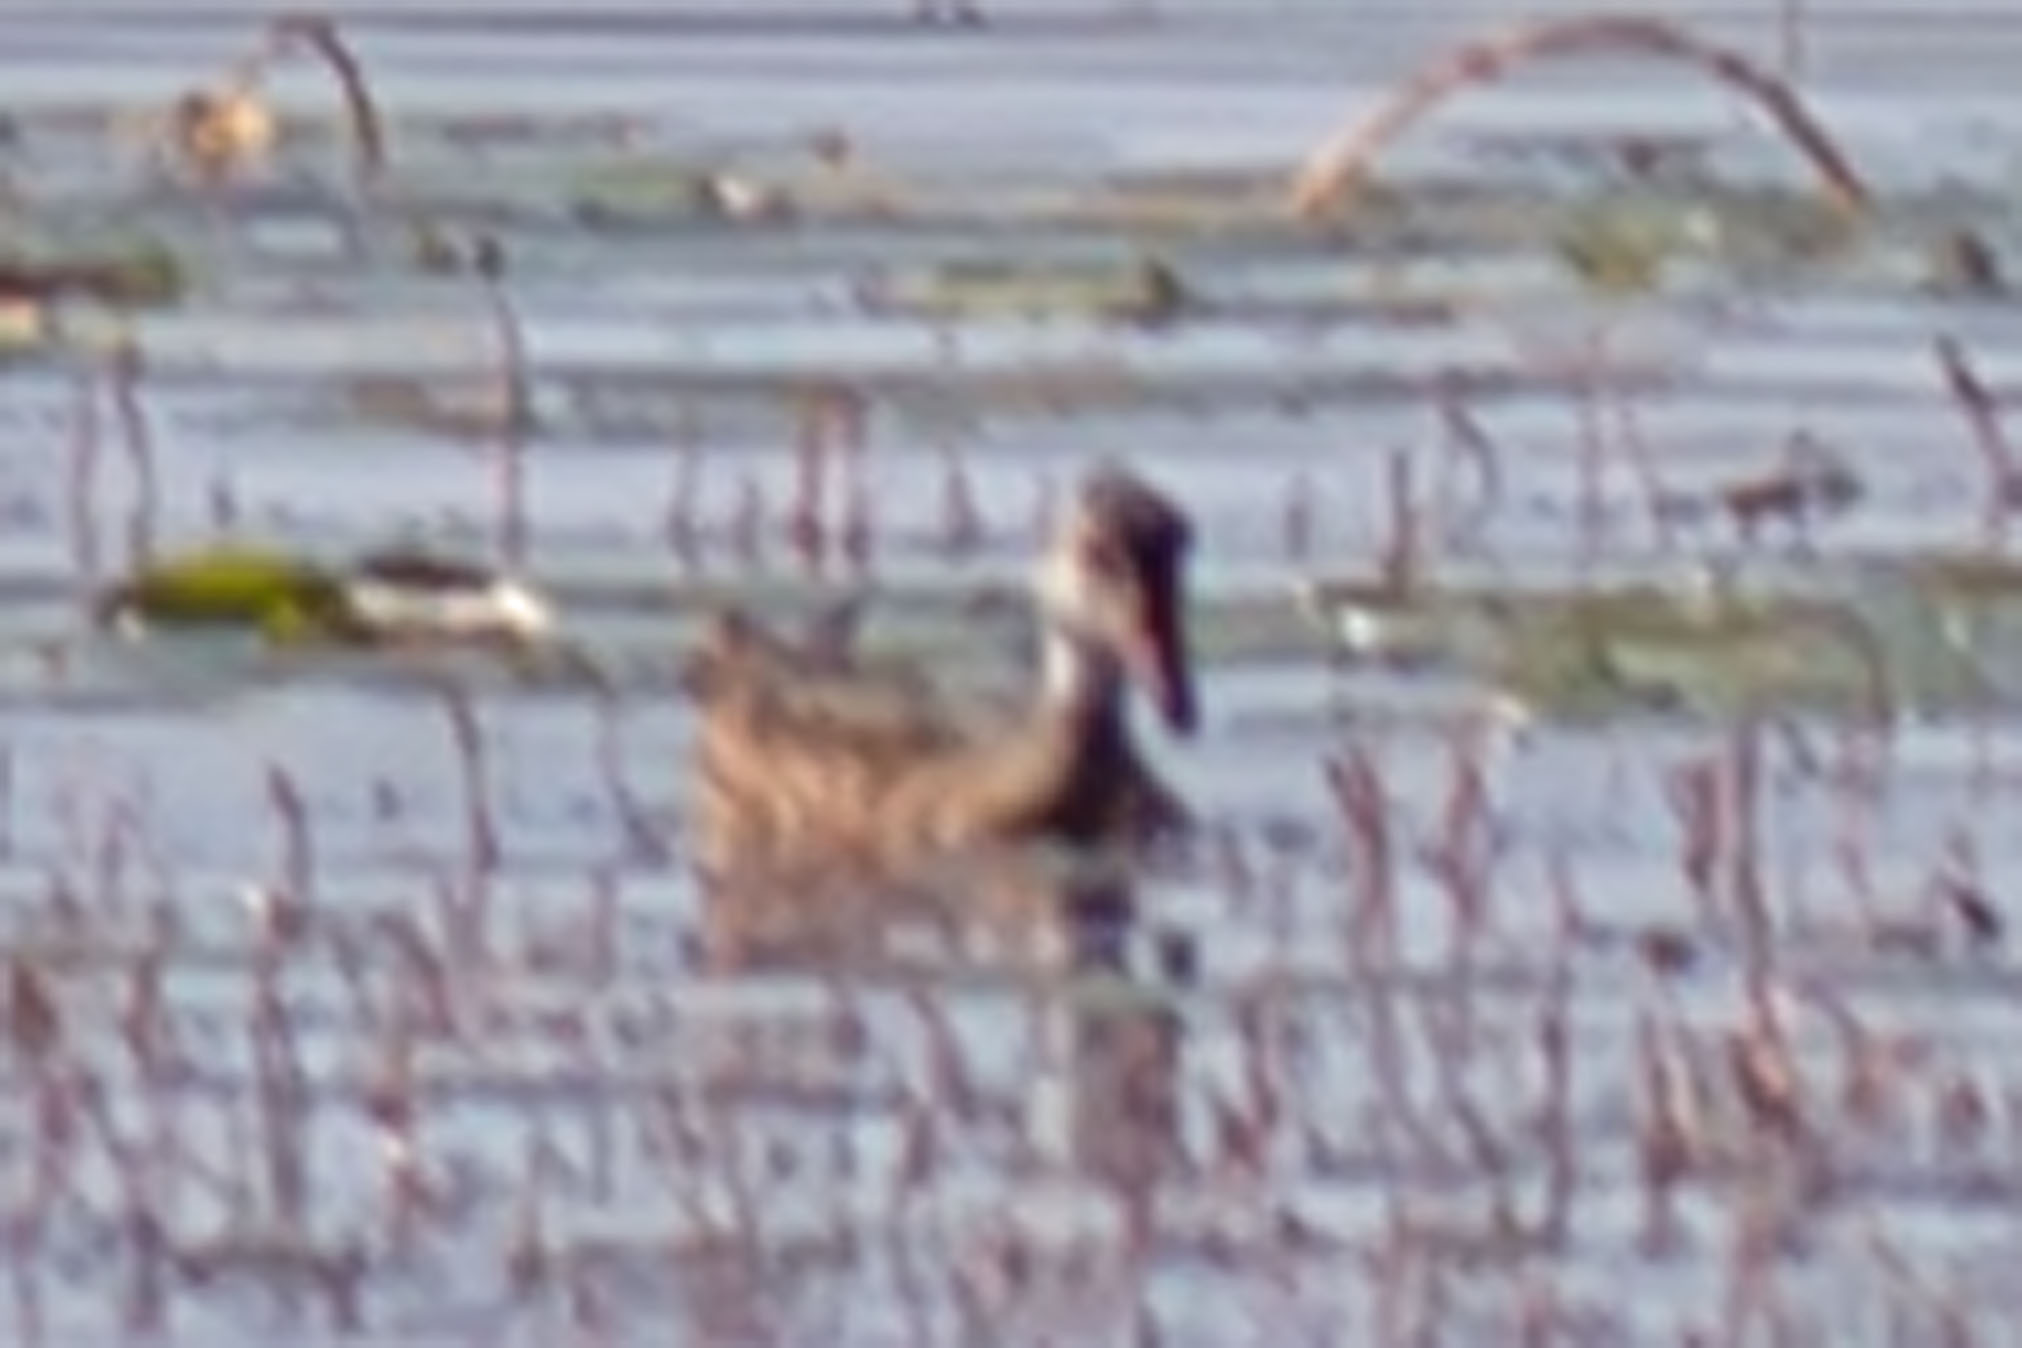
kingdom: Animalia
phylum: Chordata
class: Aves
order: Anseriformes
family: Anatidae
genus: Aix
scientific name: Aix sponsa
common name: Wood duck
